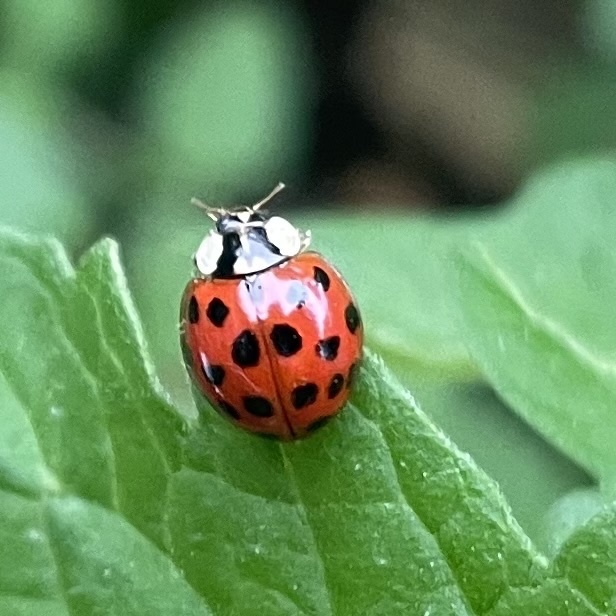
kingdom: Animalia
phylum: Arthropoda
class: Insecta
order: Coleoptera
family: Coccinellidae
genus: Harmonia
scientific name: Harmonia axyridis
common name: Harlequin ladybird
